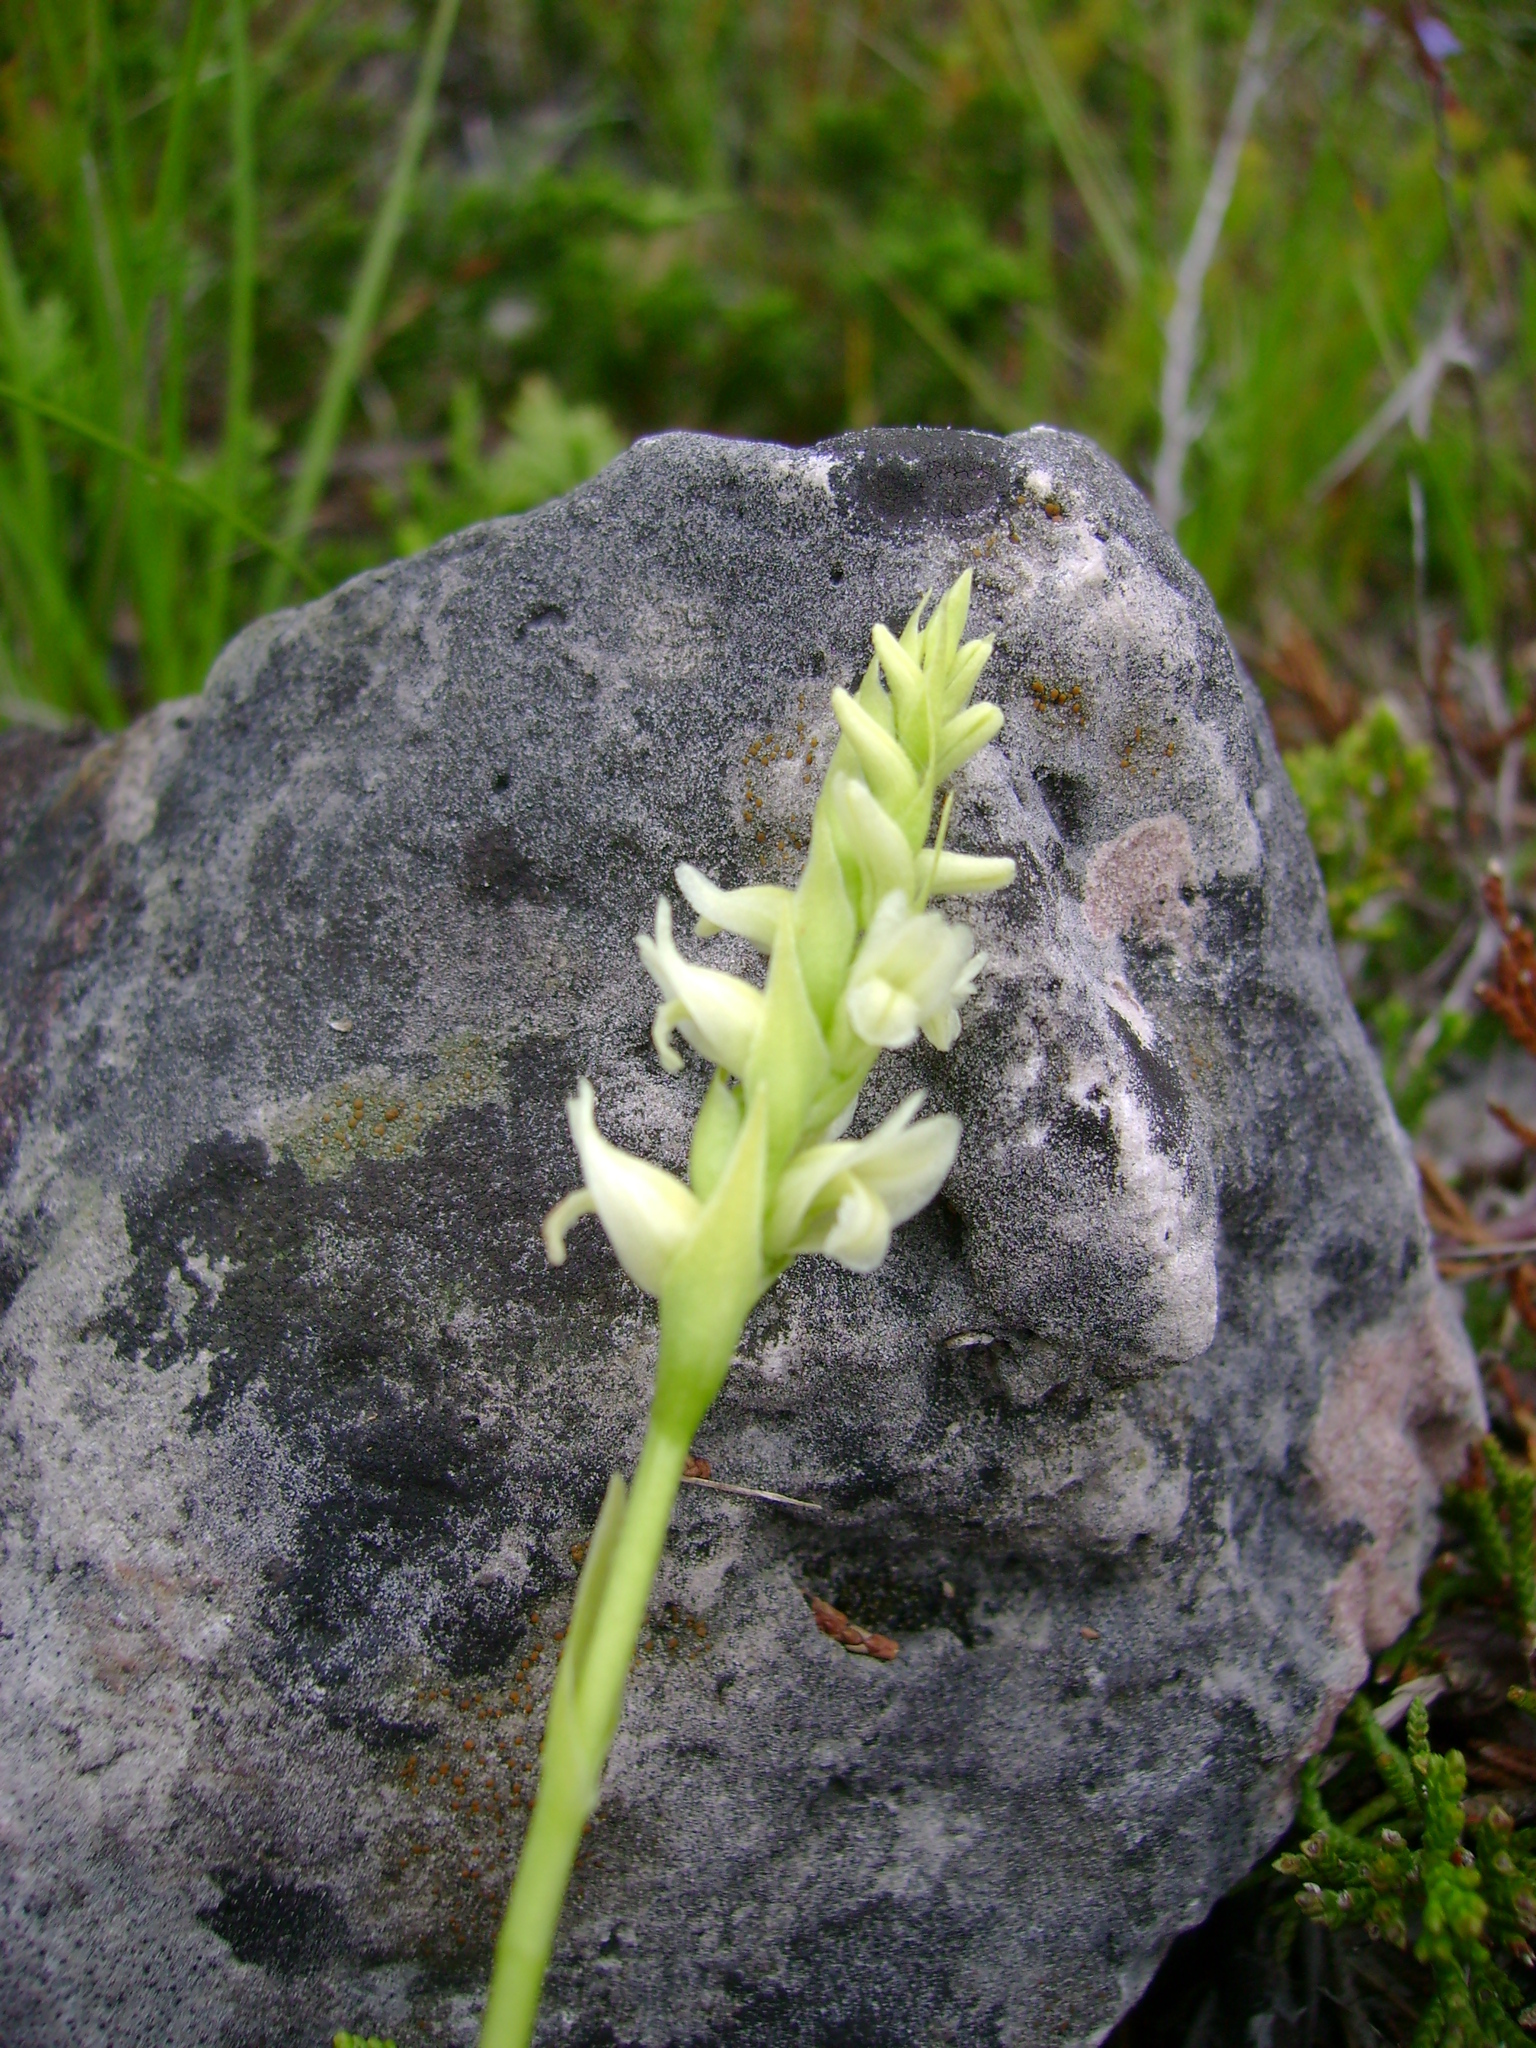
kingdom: Plantae
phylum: Tracheophyta
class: Liliopsida
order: Asparagales
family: Orchidaceae
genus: Spiranthes
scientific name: Spiranthes romanzoffiana
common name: Irish lady's-tresses
